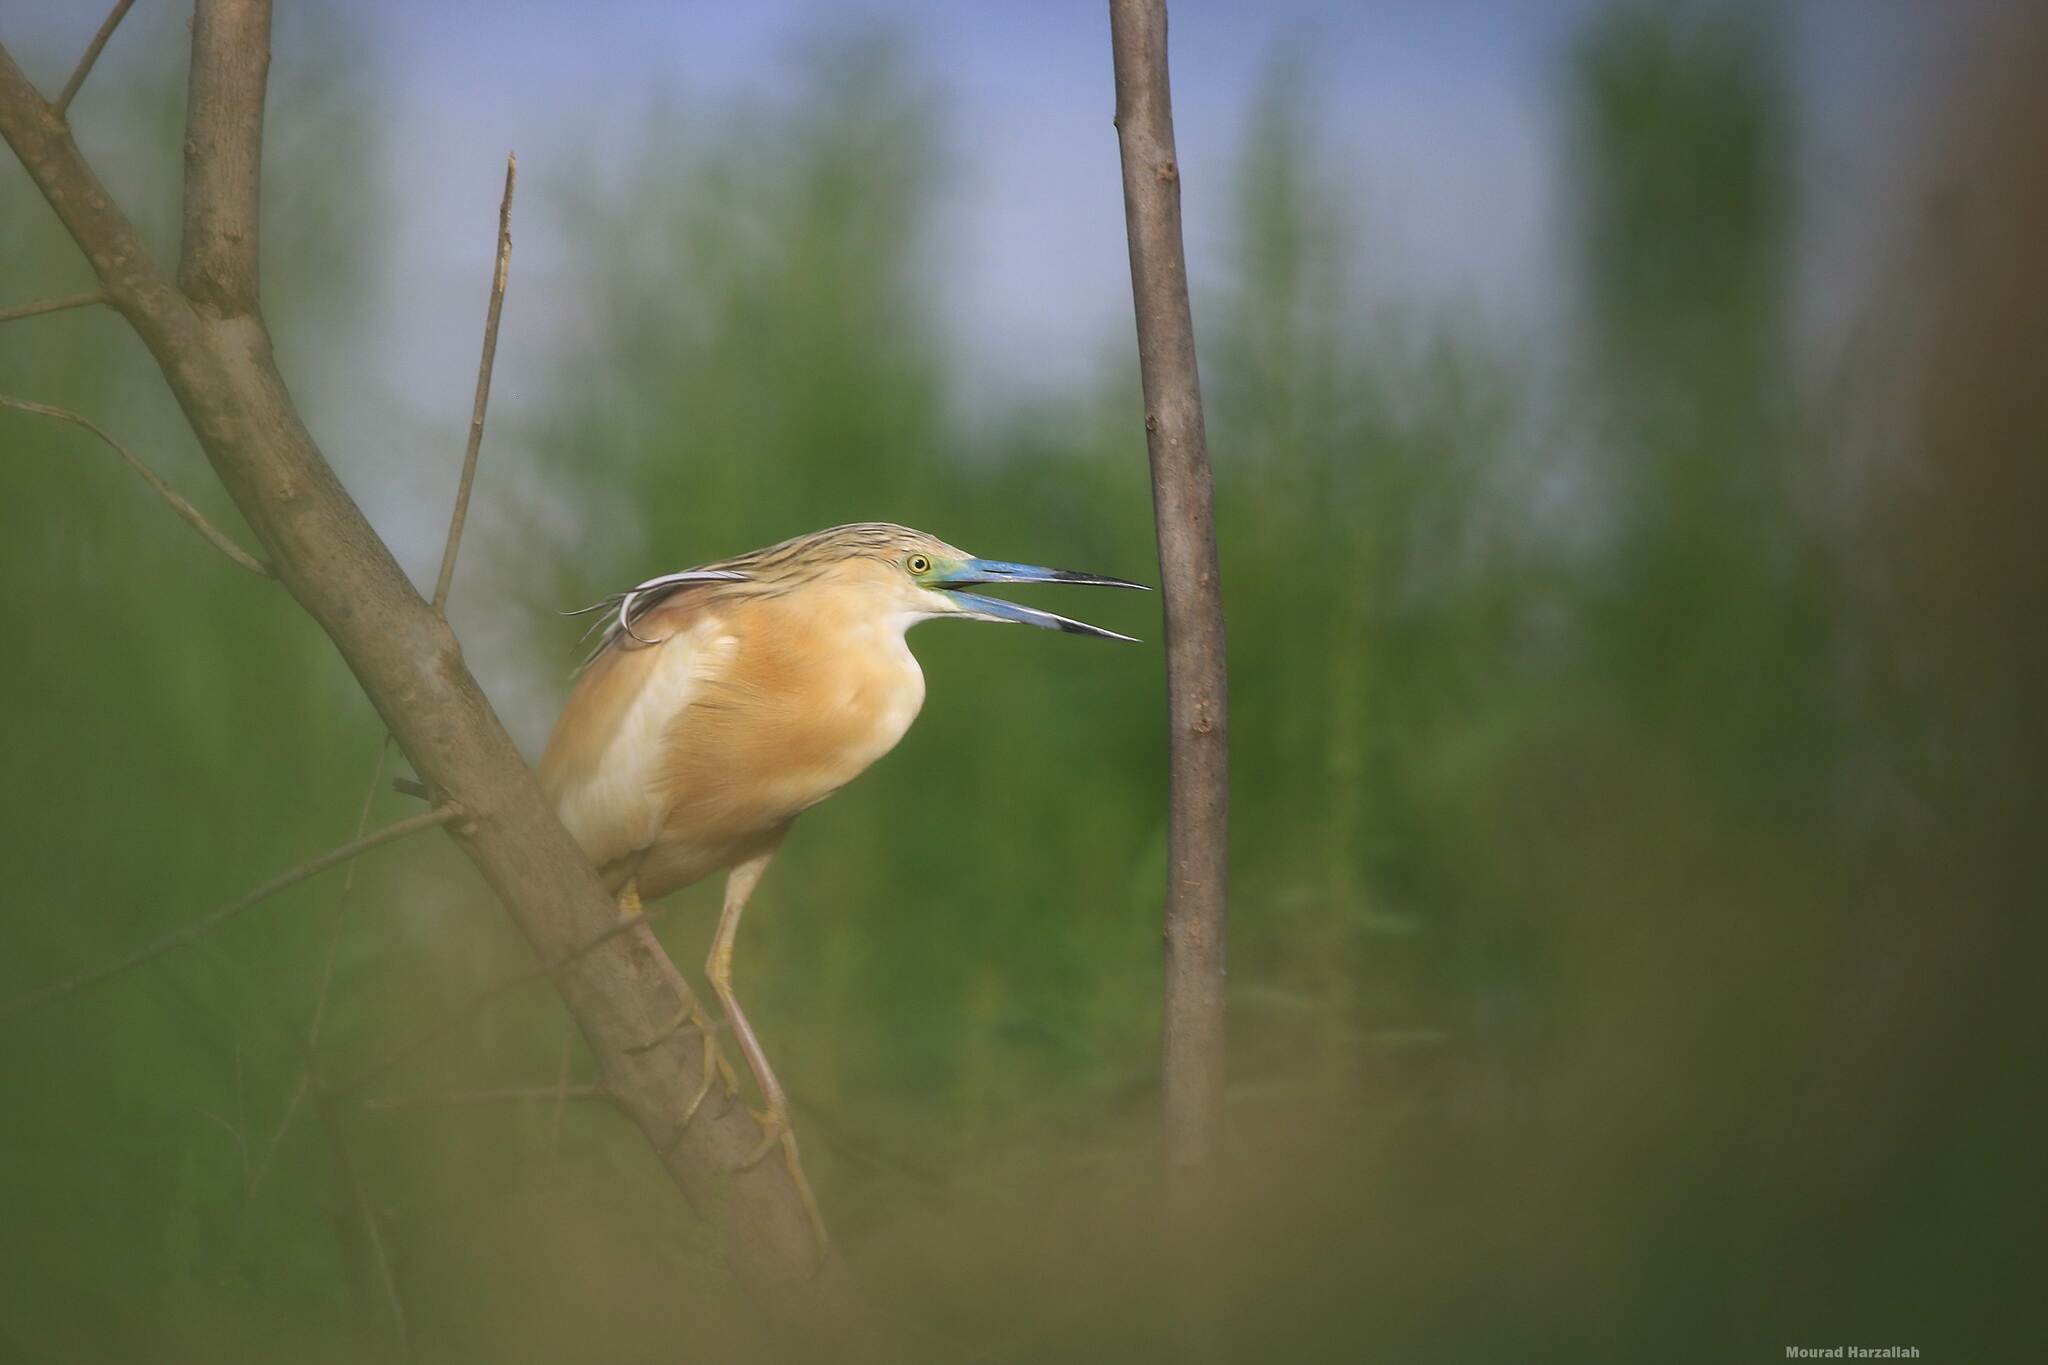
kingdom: Animalia
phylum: Chordata
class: Aves
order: Pelecaniformes
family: Ardeidae
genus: Ardeola
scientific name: Ardeola ralloides
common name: Squacco heron
